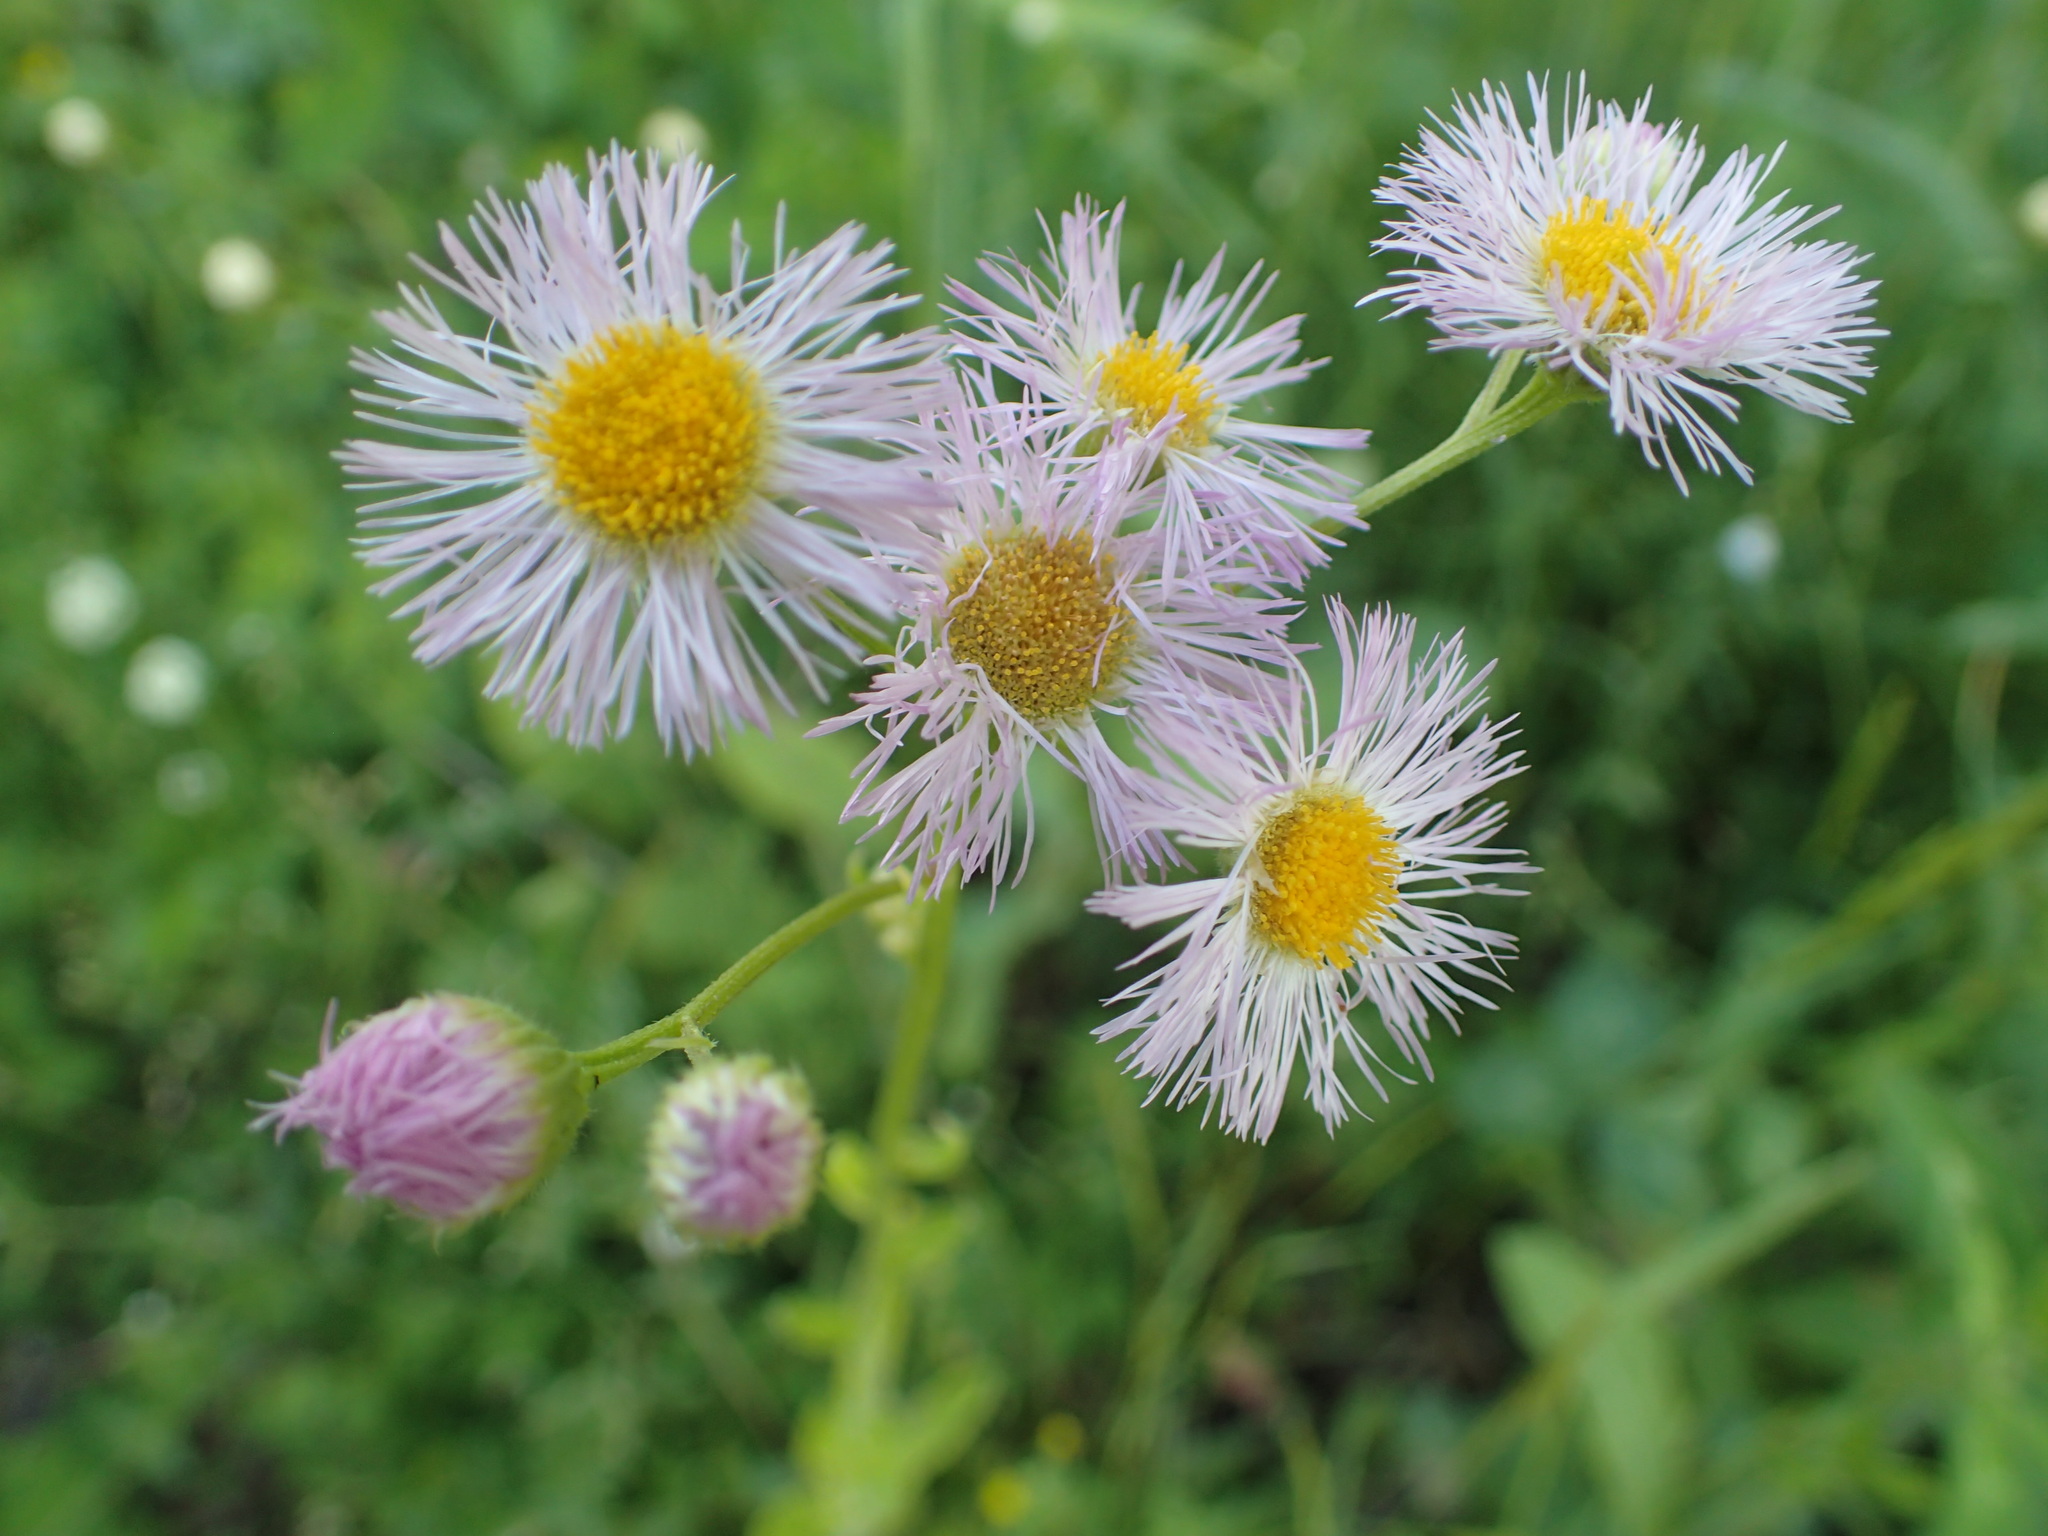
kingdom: Plantae
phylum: Tracheophyta
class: Magnoliopsida
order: Asterales
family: Asteraceae
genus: Erigeron
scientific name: Erigeron philadelphicus
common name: Robin's-plantain
